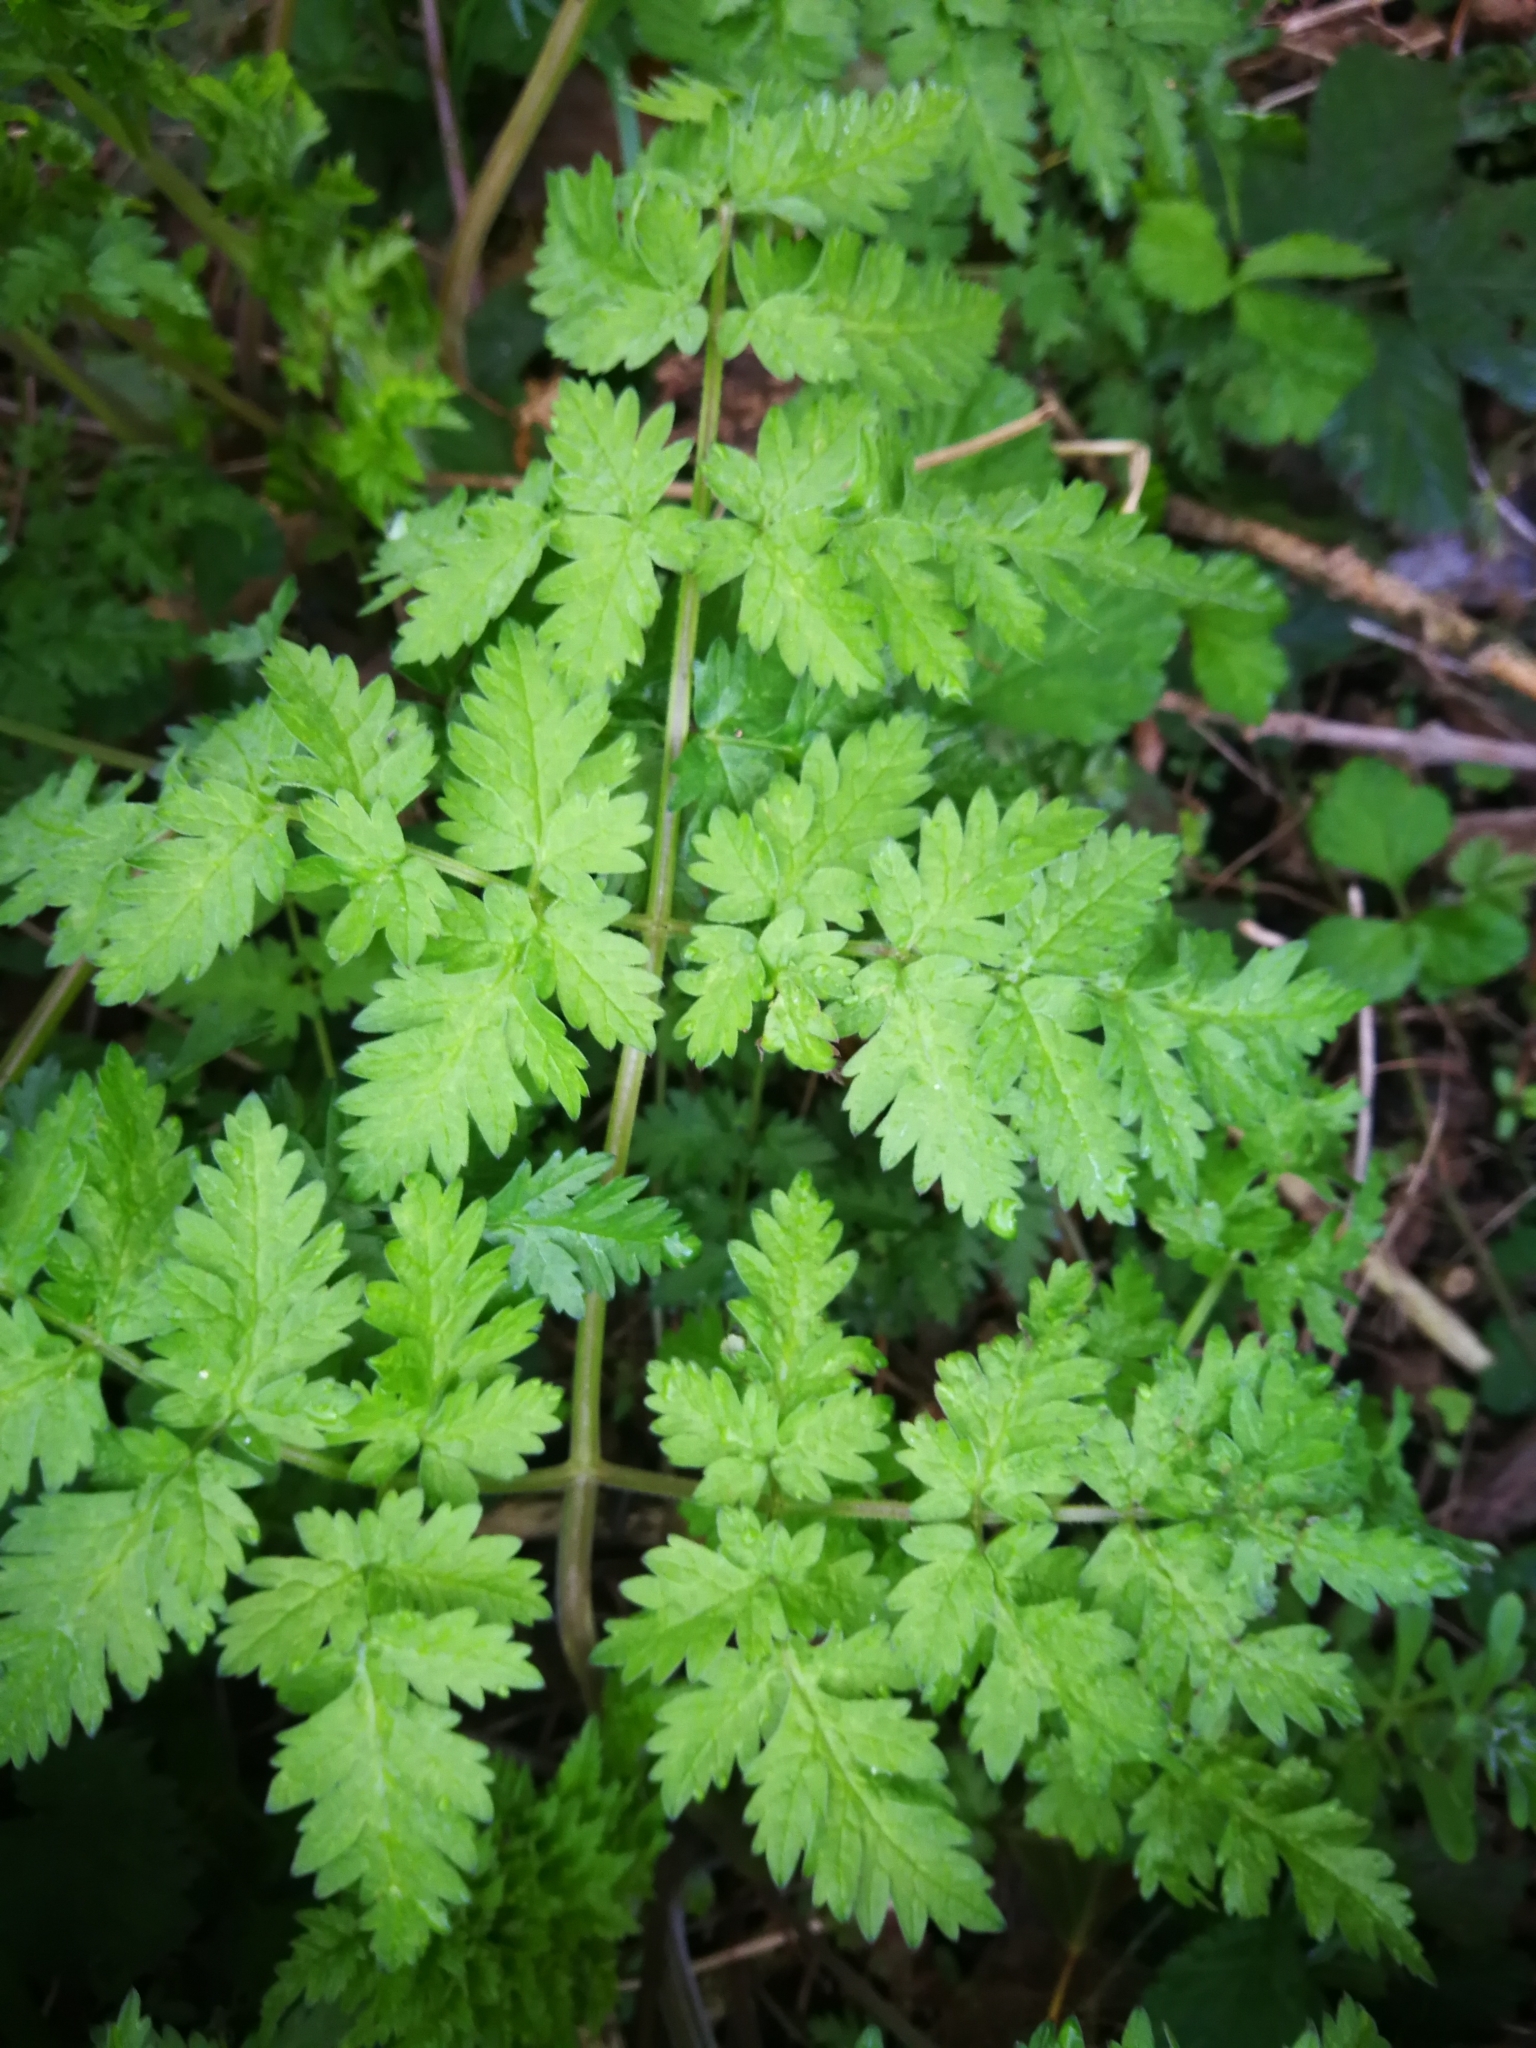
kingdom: Plantae
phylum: Tracheophyta
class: Magnoliopsida
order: Apiales
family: Apiaceae
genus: Anthriscus
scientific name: Anthriscus sylvestris
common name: Cow parsley
